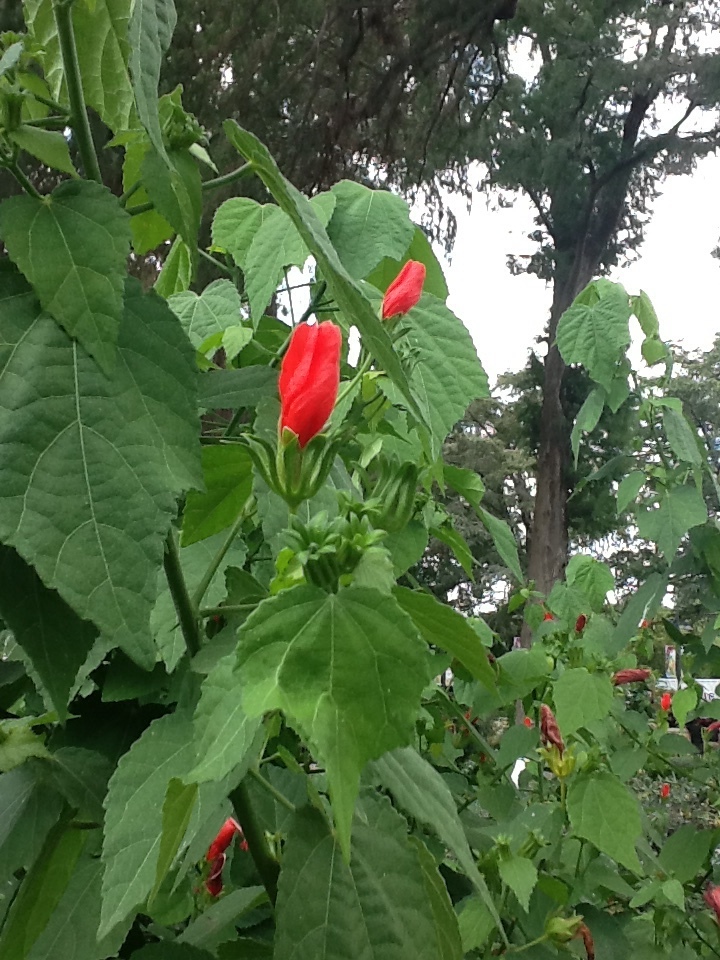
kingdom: Plantae
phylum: Tracheophyta
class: Magnoliopsida
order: Malvales
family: Malvaceae
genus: Malvaviscus
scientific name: Malvaviscus arboreus
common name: Wax mallow
